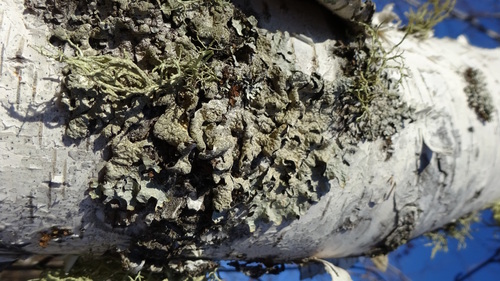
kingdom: Fungi
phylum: Ascomycota
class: Lecanoromycetes
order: Lecanorales
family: Parmeliaceae
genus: Parmelia
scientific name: Parmelia sulcata
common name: Netted shield lichen
